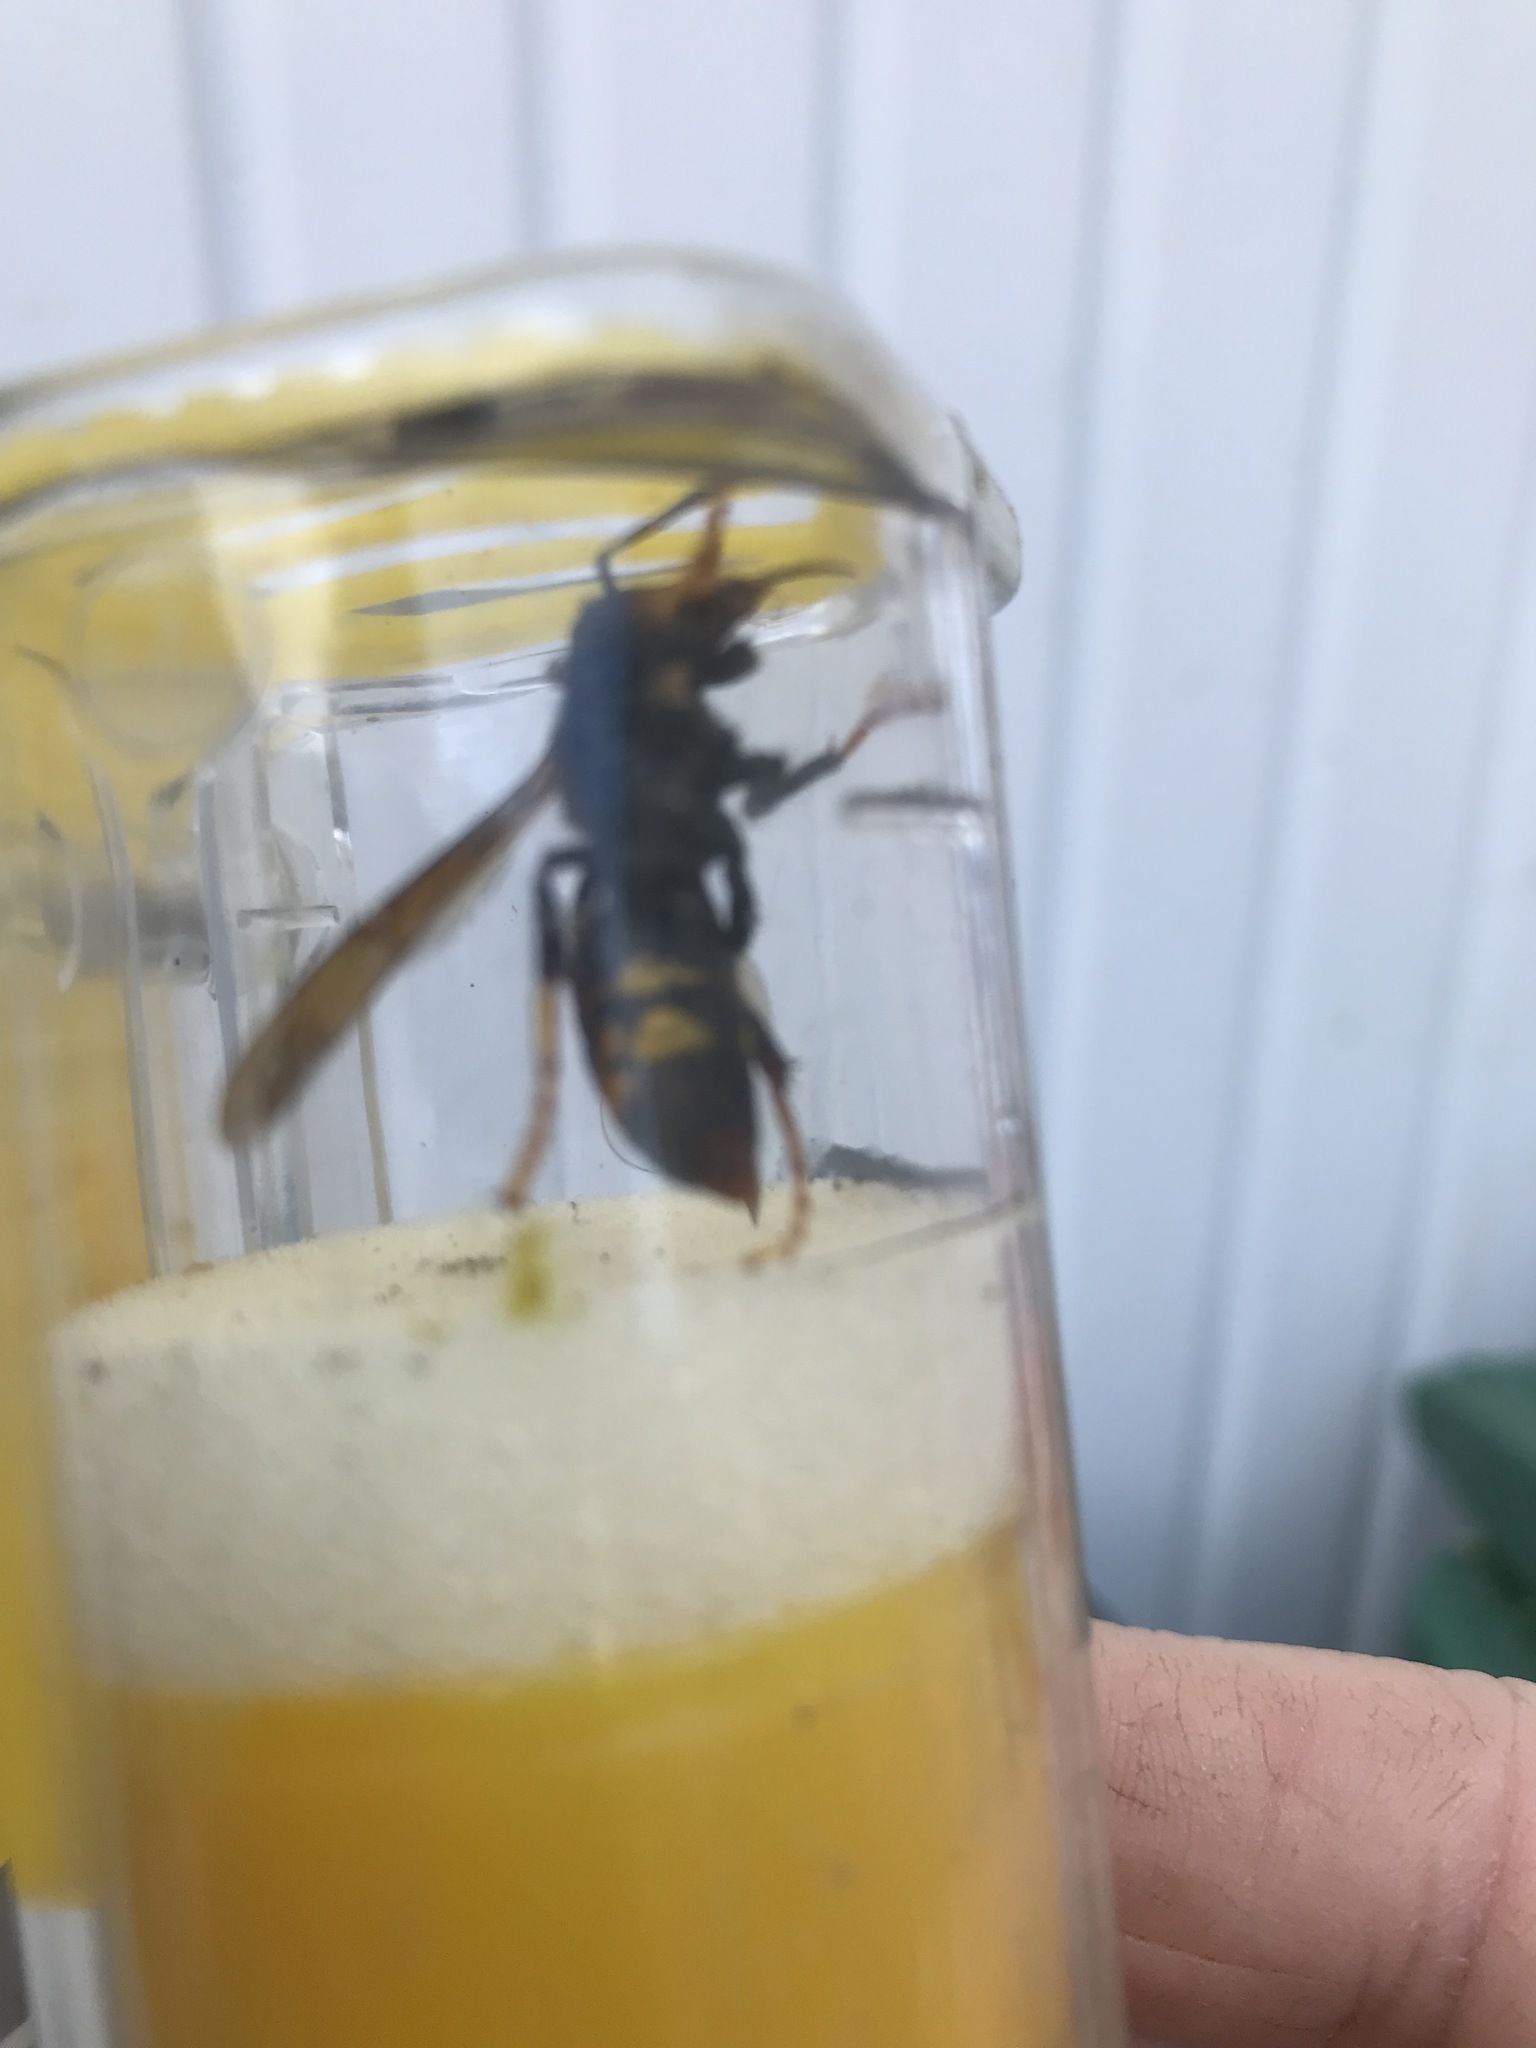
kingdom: Animalia
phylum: Arthropoda
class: Insecta
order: Hymenoptera
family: Vespidae
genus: Vespa
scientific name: Vespa velutina
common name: Asian hornet
